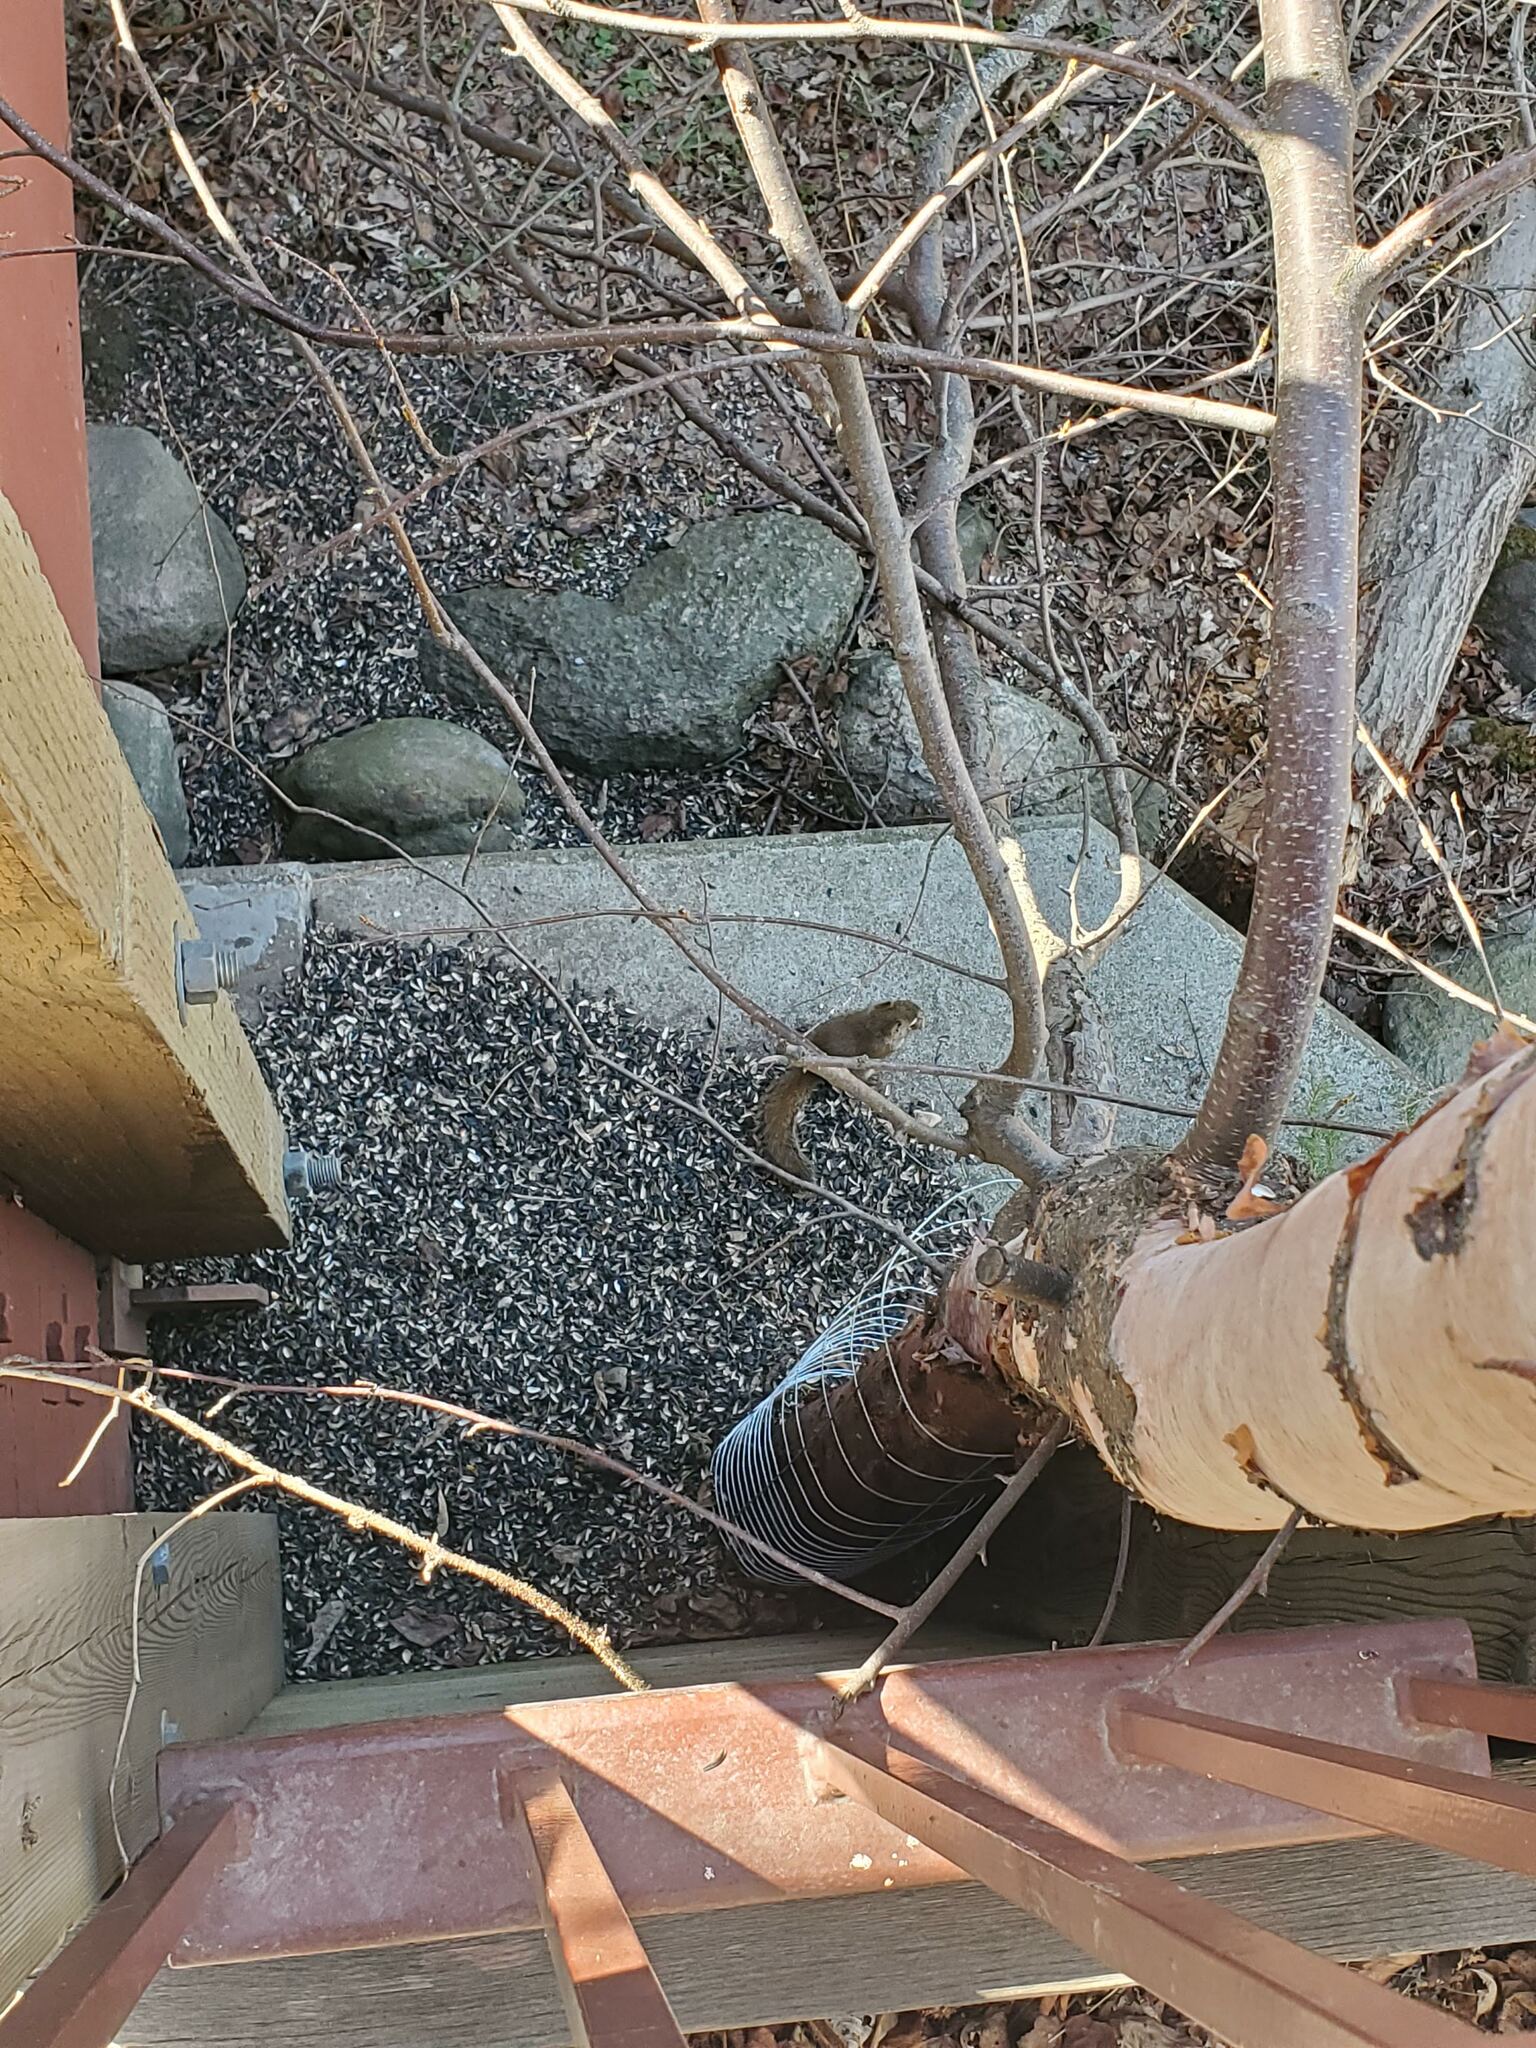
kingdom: Animalia
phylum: Chordata
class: Mammalia
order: Rodentia
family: Sciuridae
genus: Tamiasciurus
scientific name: Tamiasciurus hudsonicus
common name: Red squirrel
